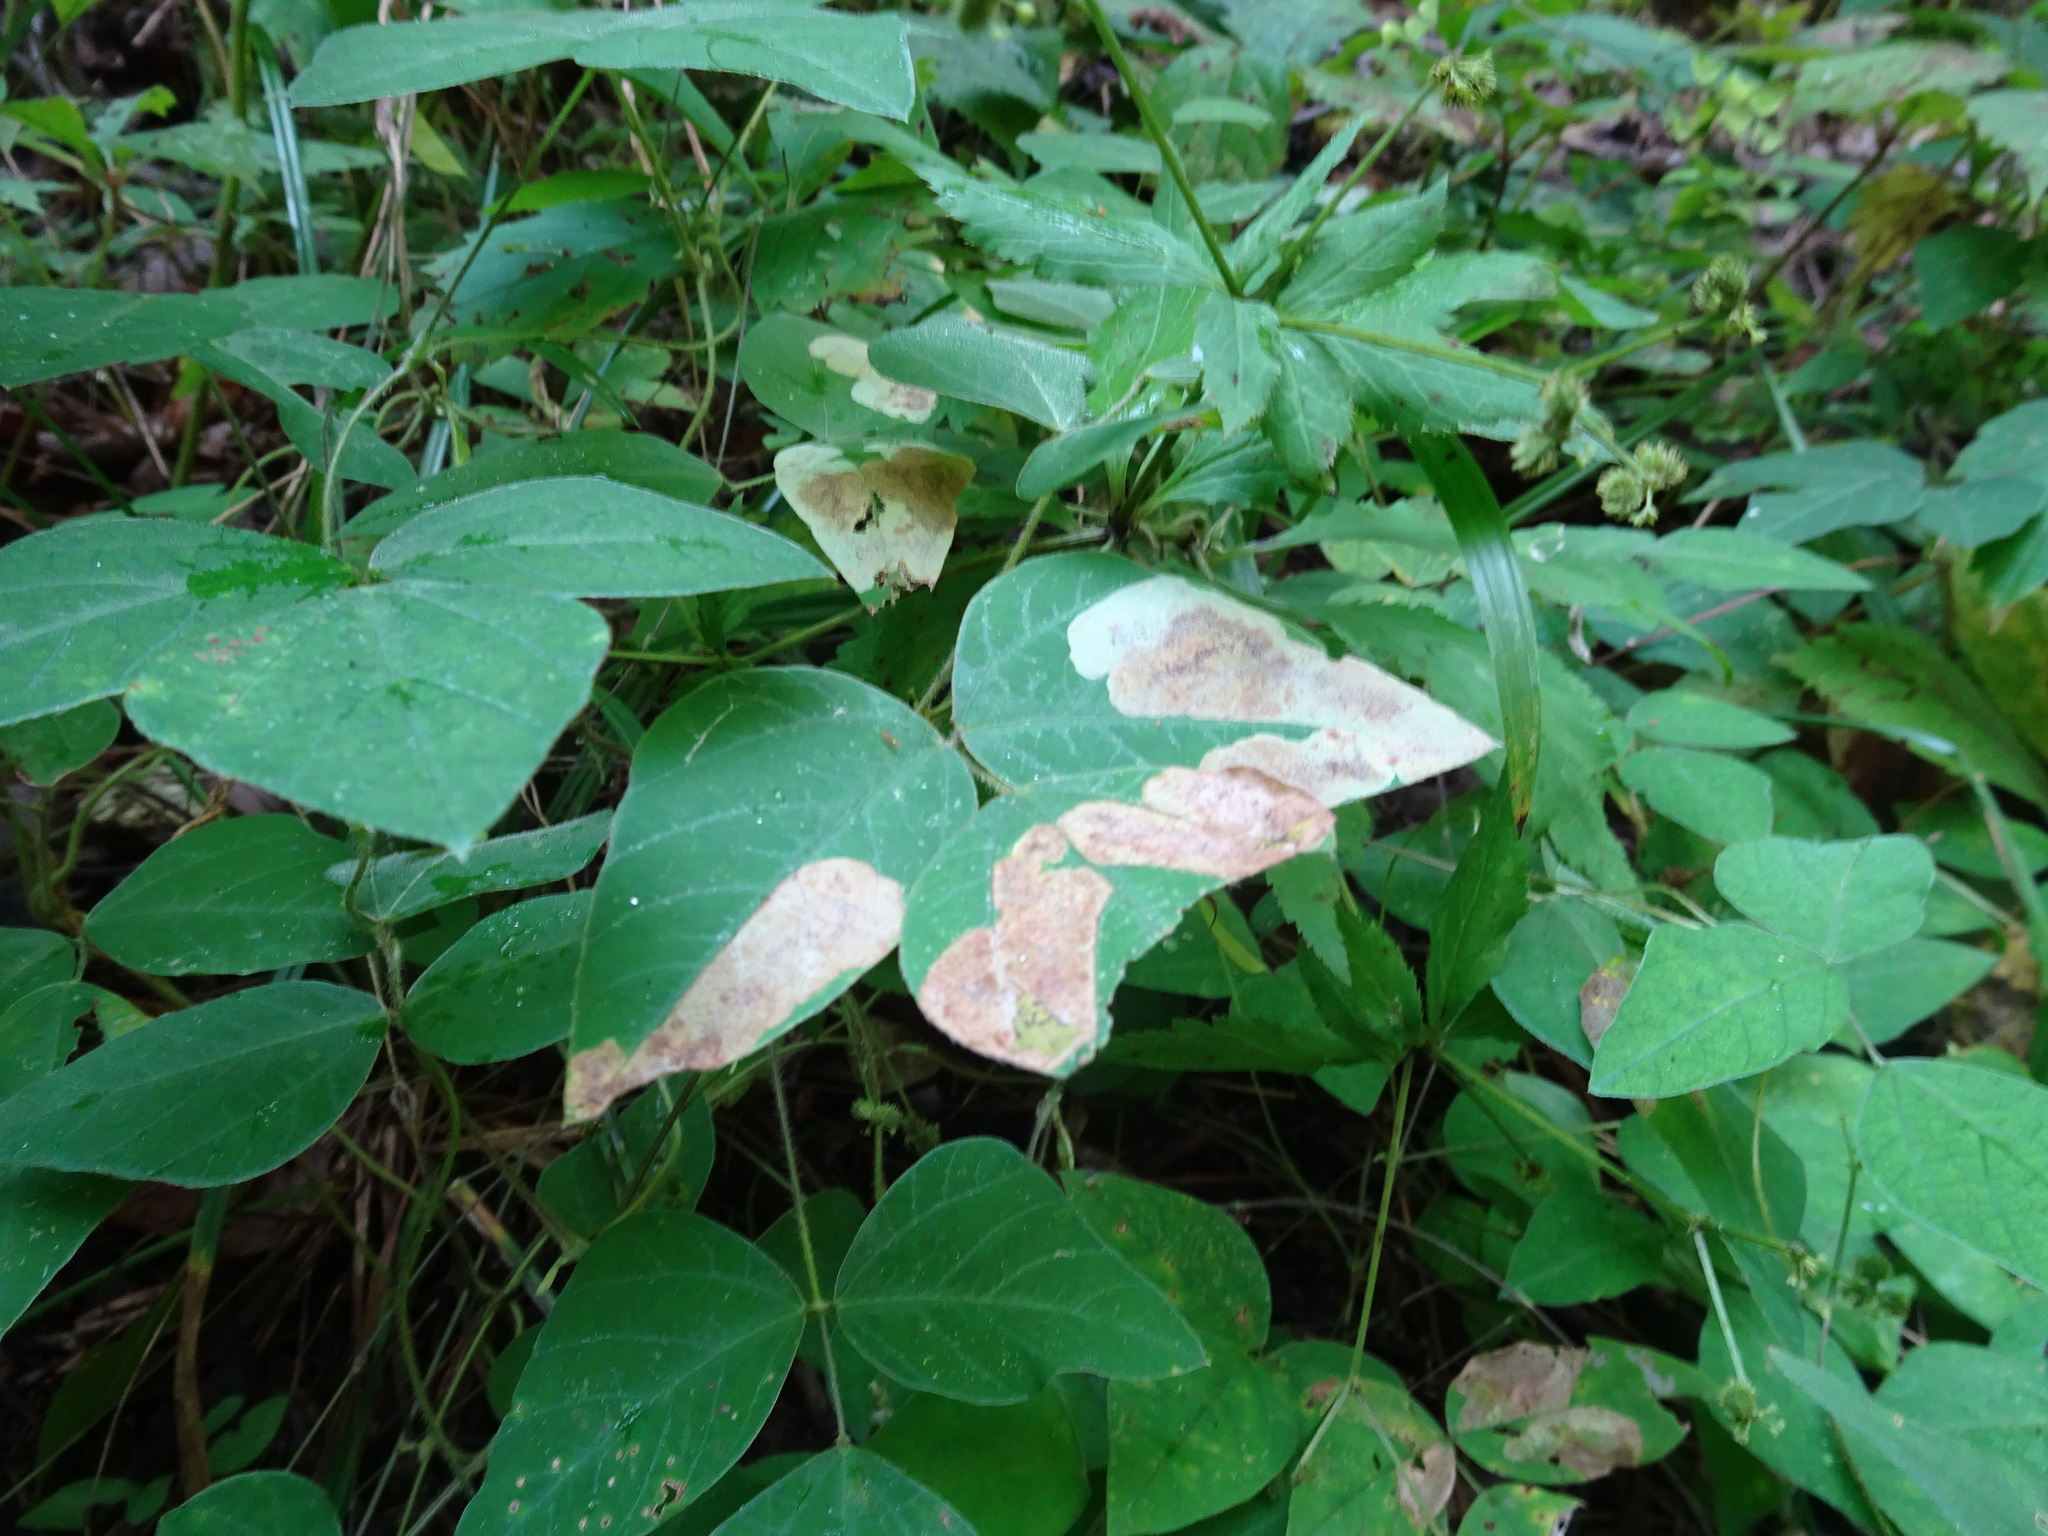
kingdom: Animalia
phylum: Arthropoda
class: Insecta
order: Lepidoptera
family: Gracillariidae
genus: Leucanthiza
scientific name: Leucanthiza amphicarpeaefoliella
